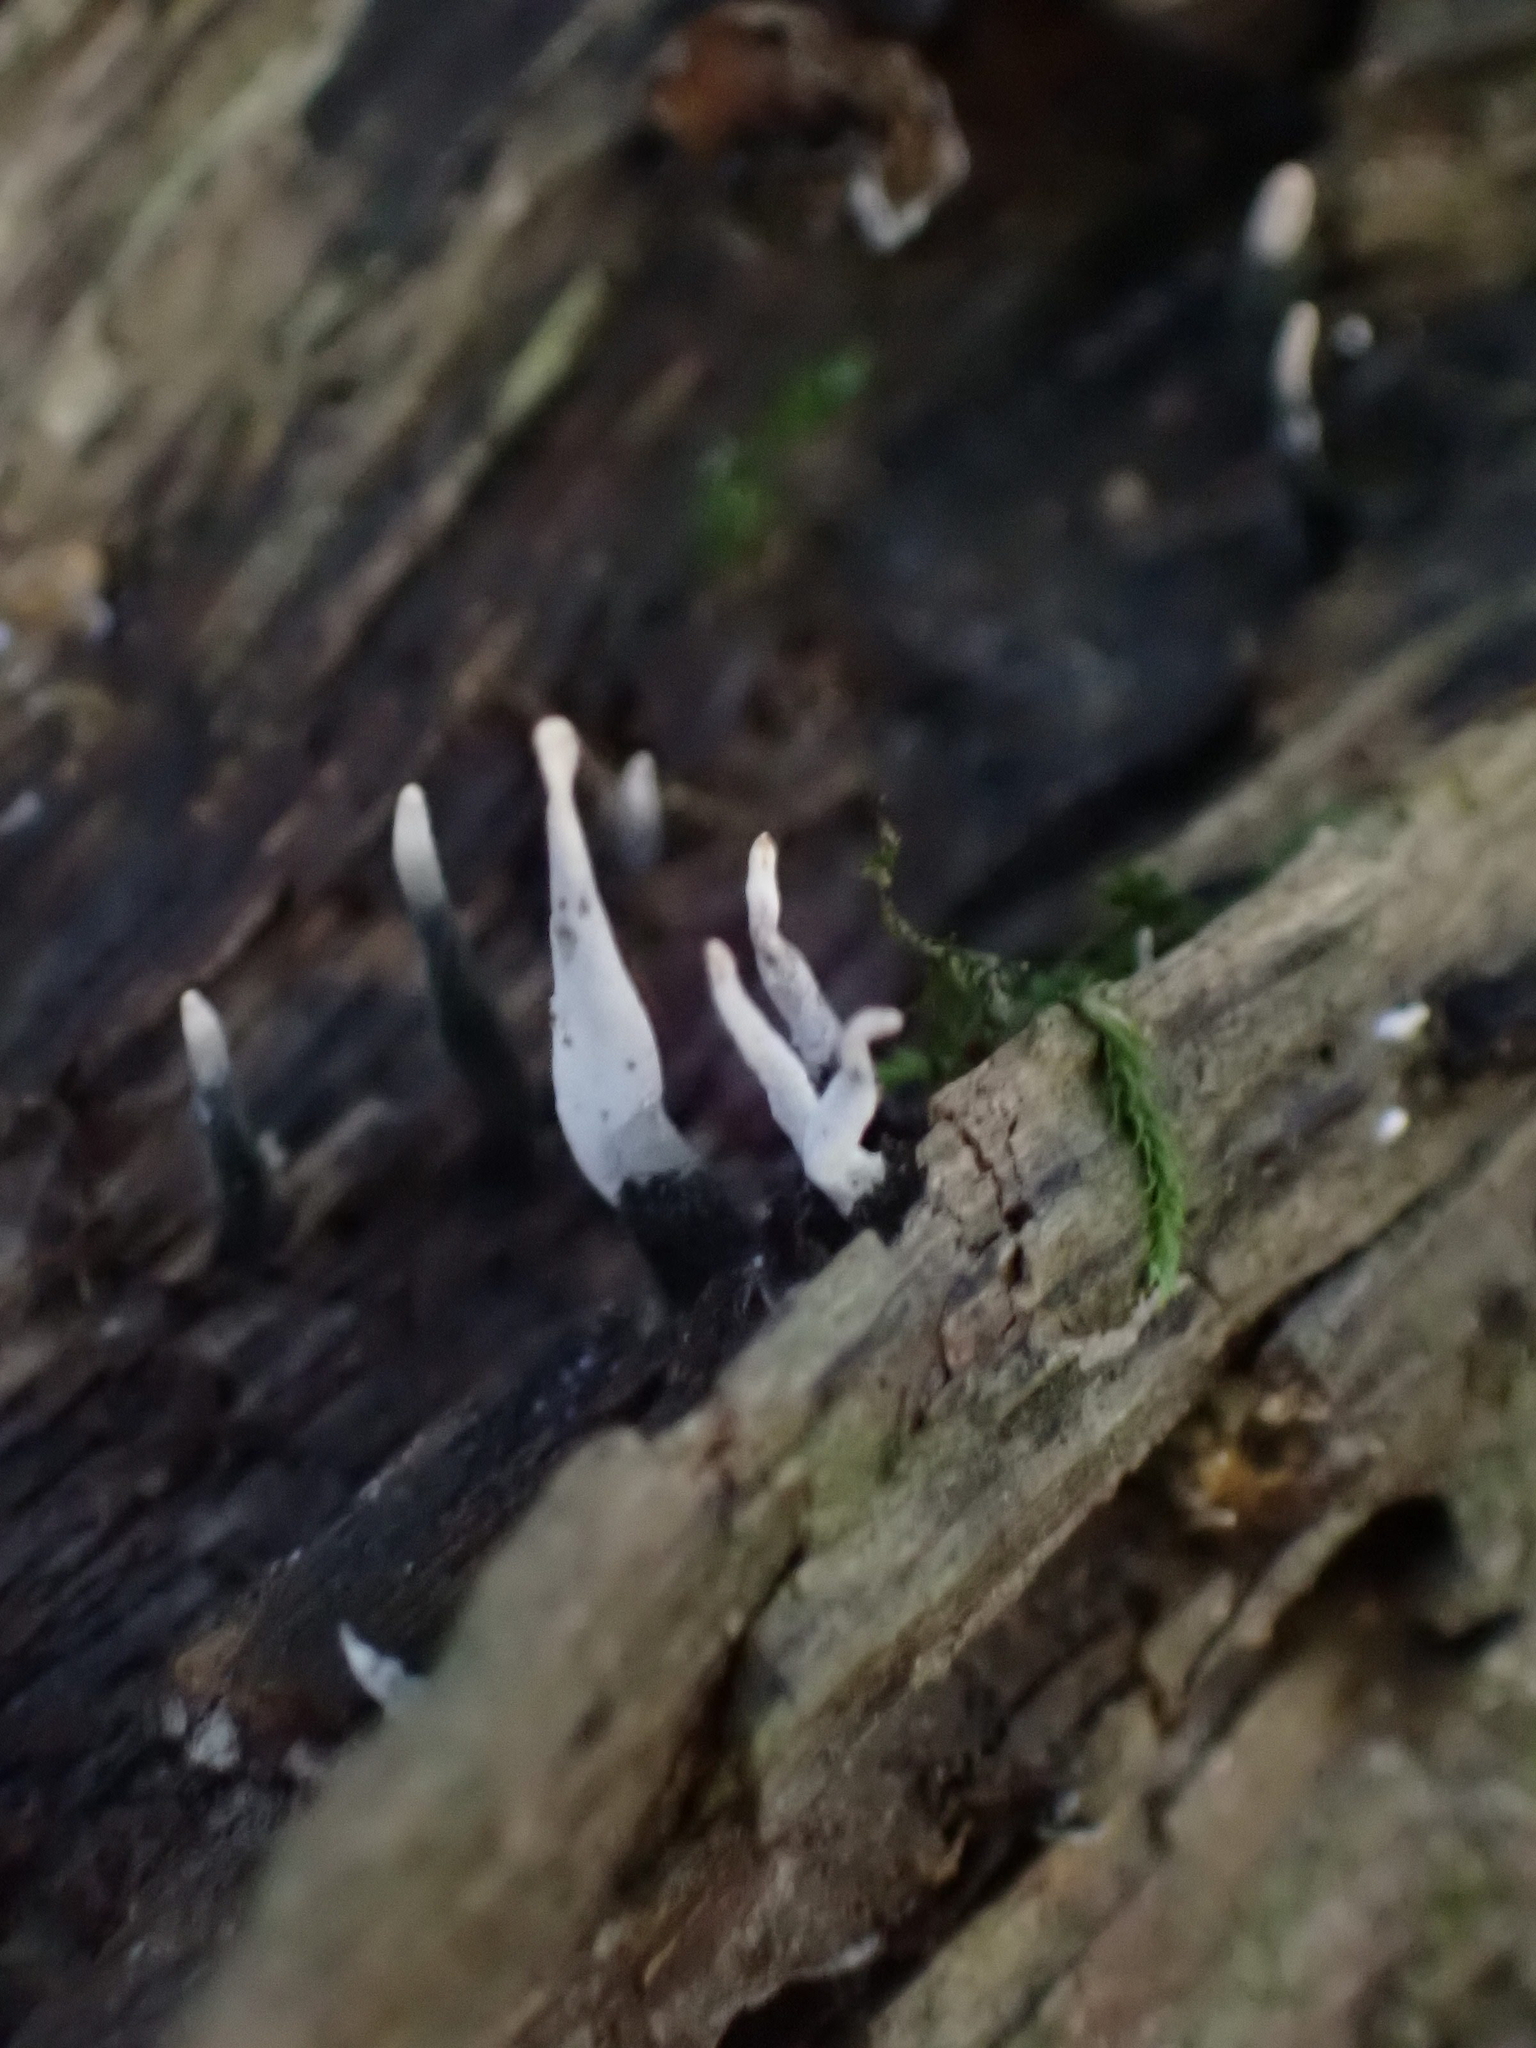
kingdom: Fungi
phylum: Ascomycota
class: Sordariomycetes
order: Xylariales
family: Xylariaceae
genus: Xylaria
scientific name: Xylaria hypoxylon
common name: Candle-snuff fungus
